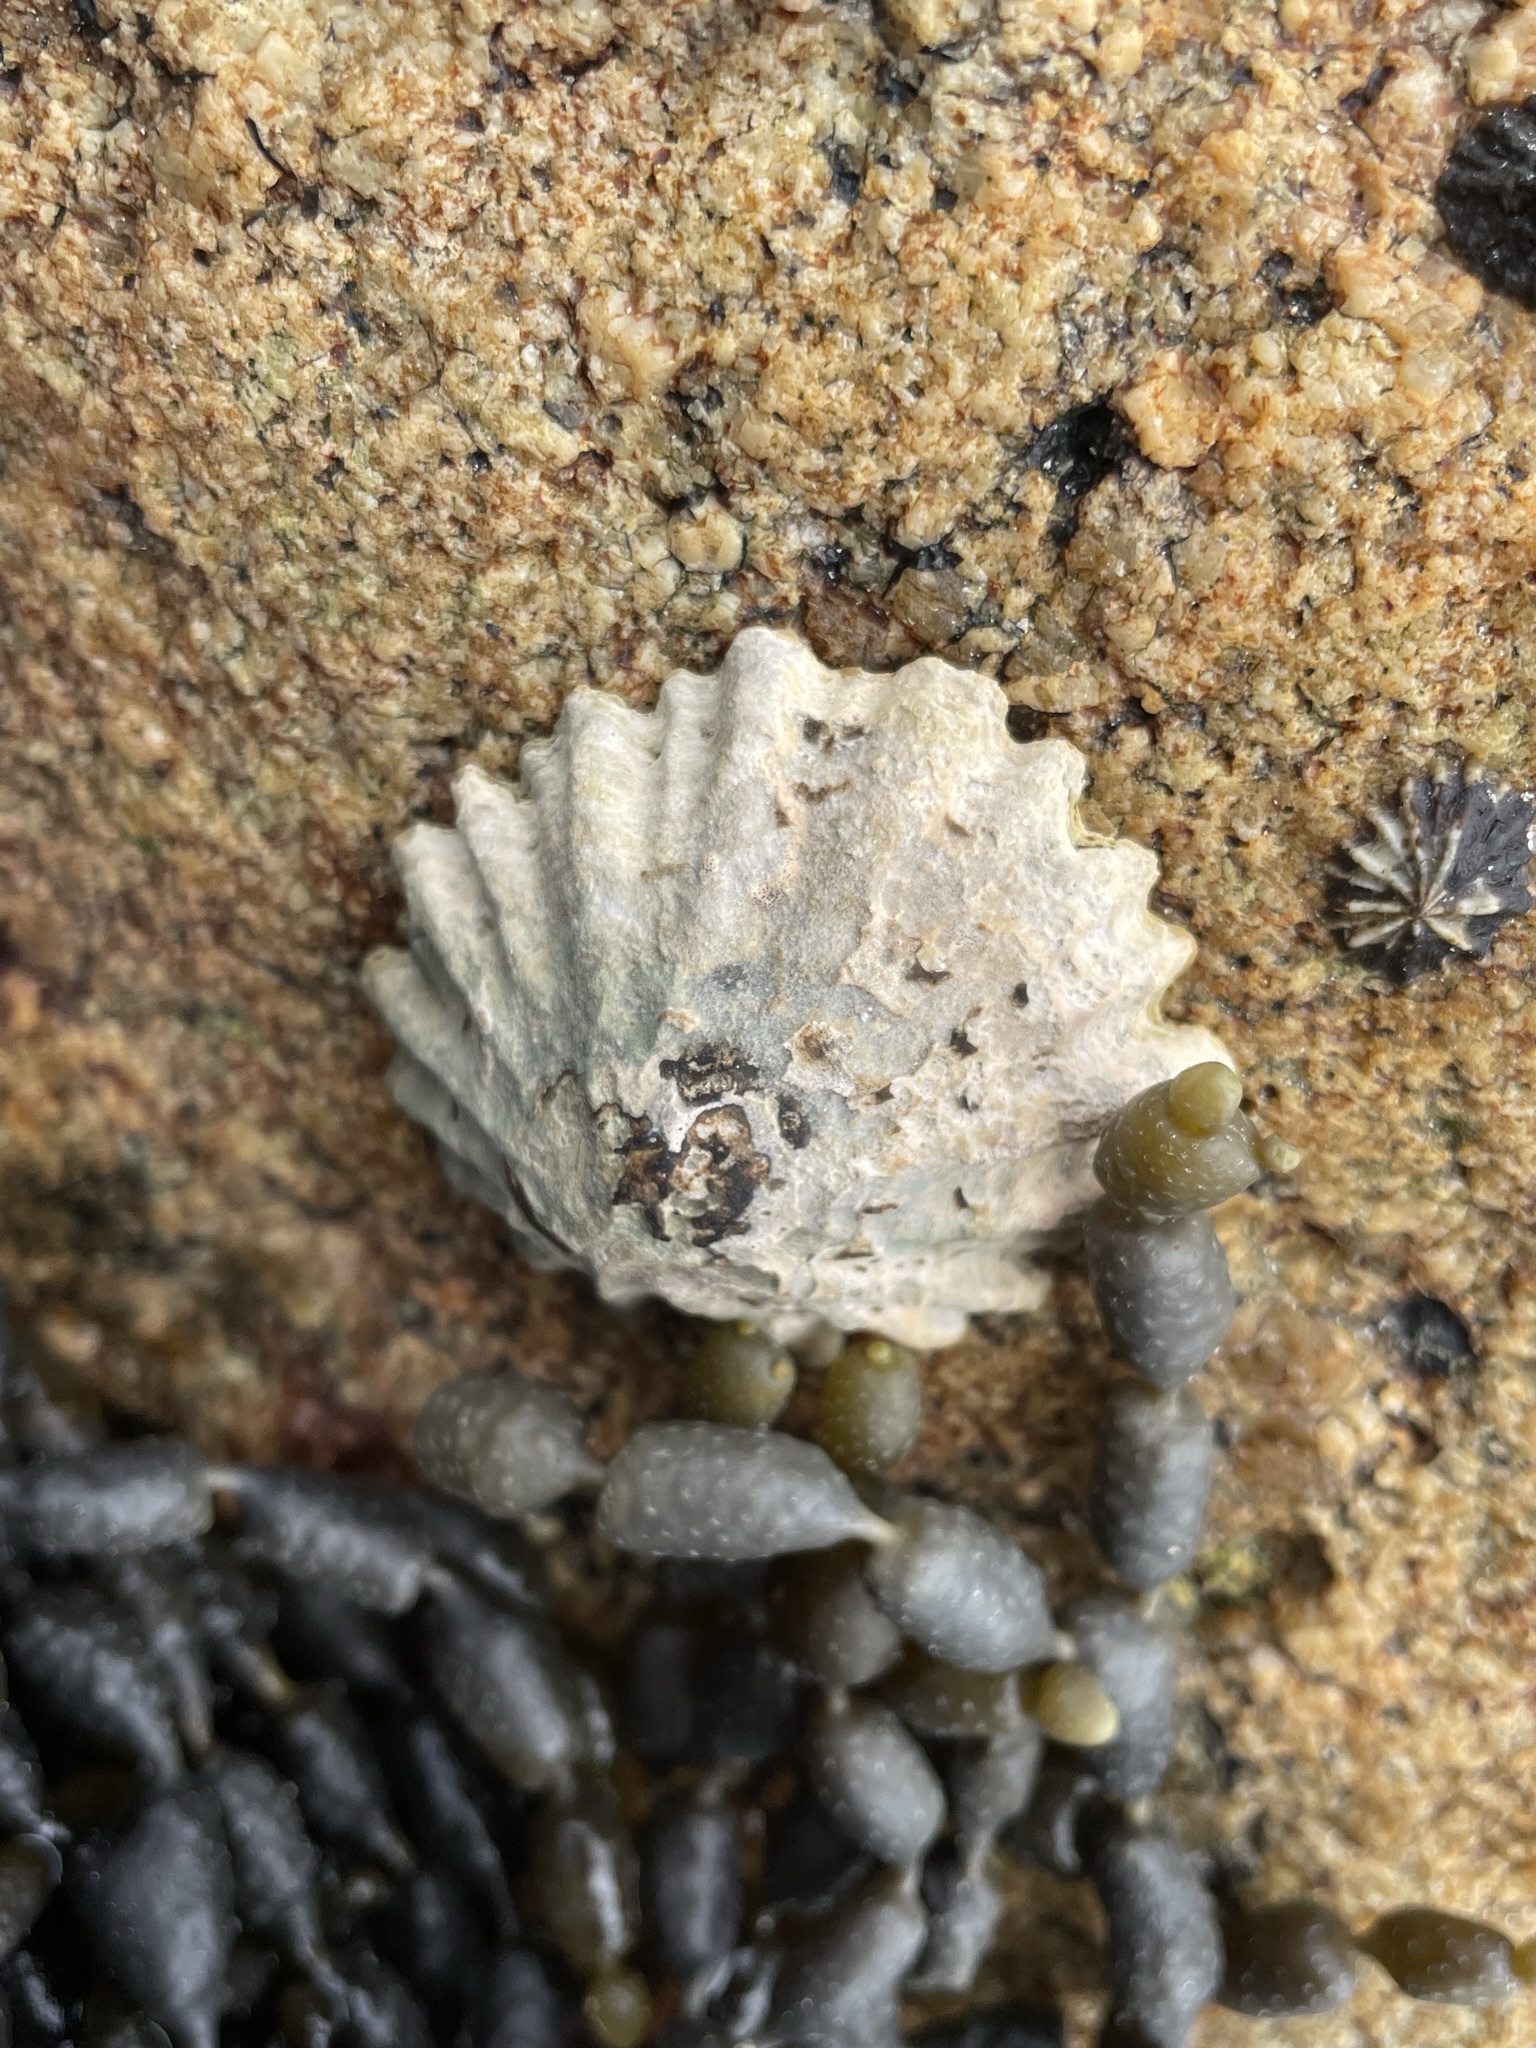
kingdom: Animalia
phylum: Mollusca
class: Gastropoda
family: Lottiidae
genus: Patelloida
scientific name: Patelloida alticostata
